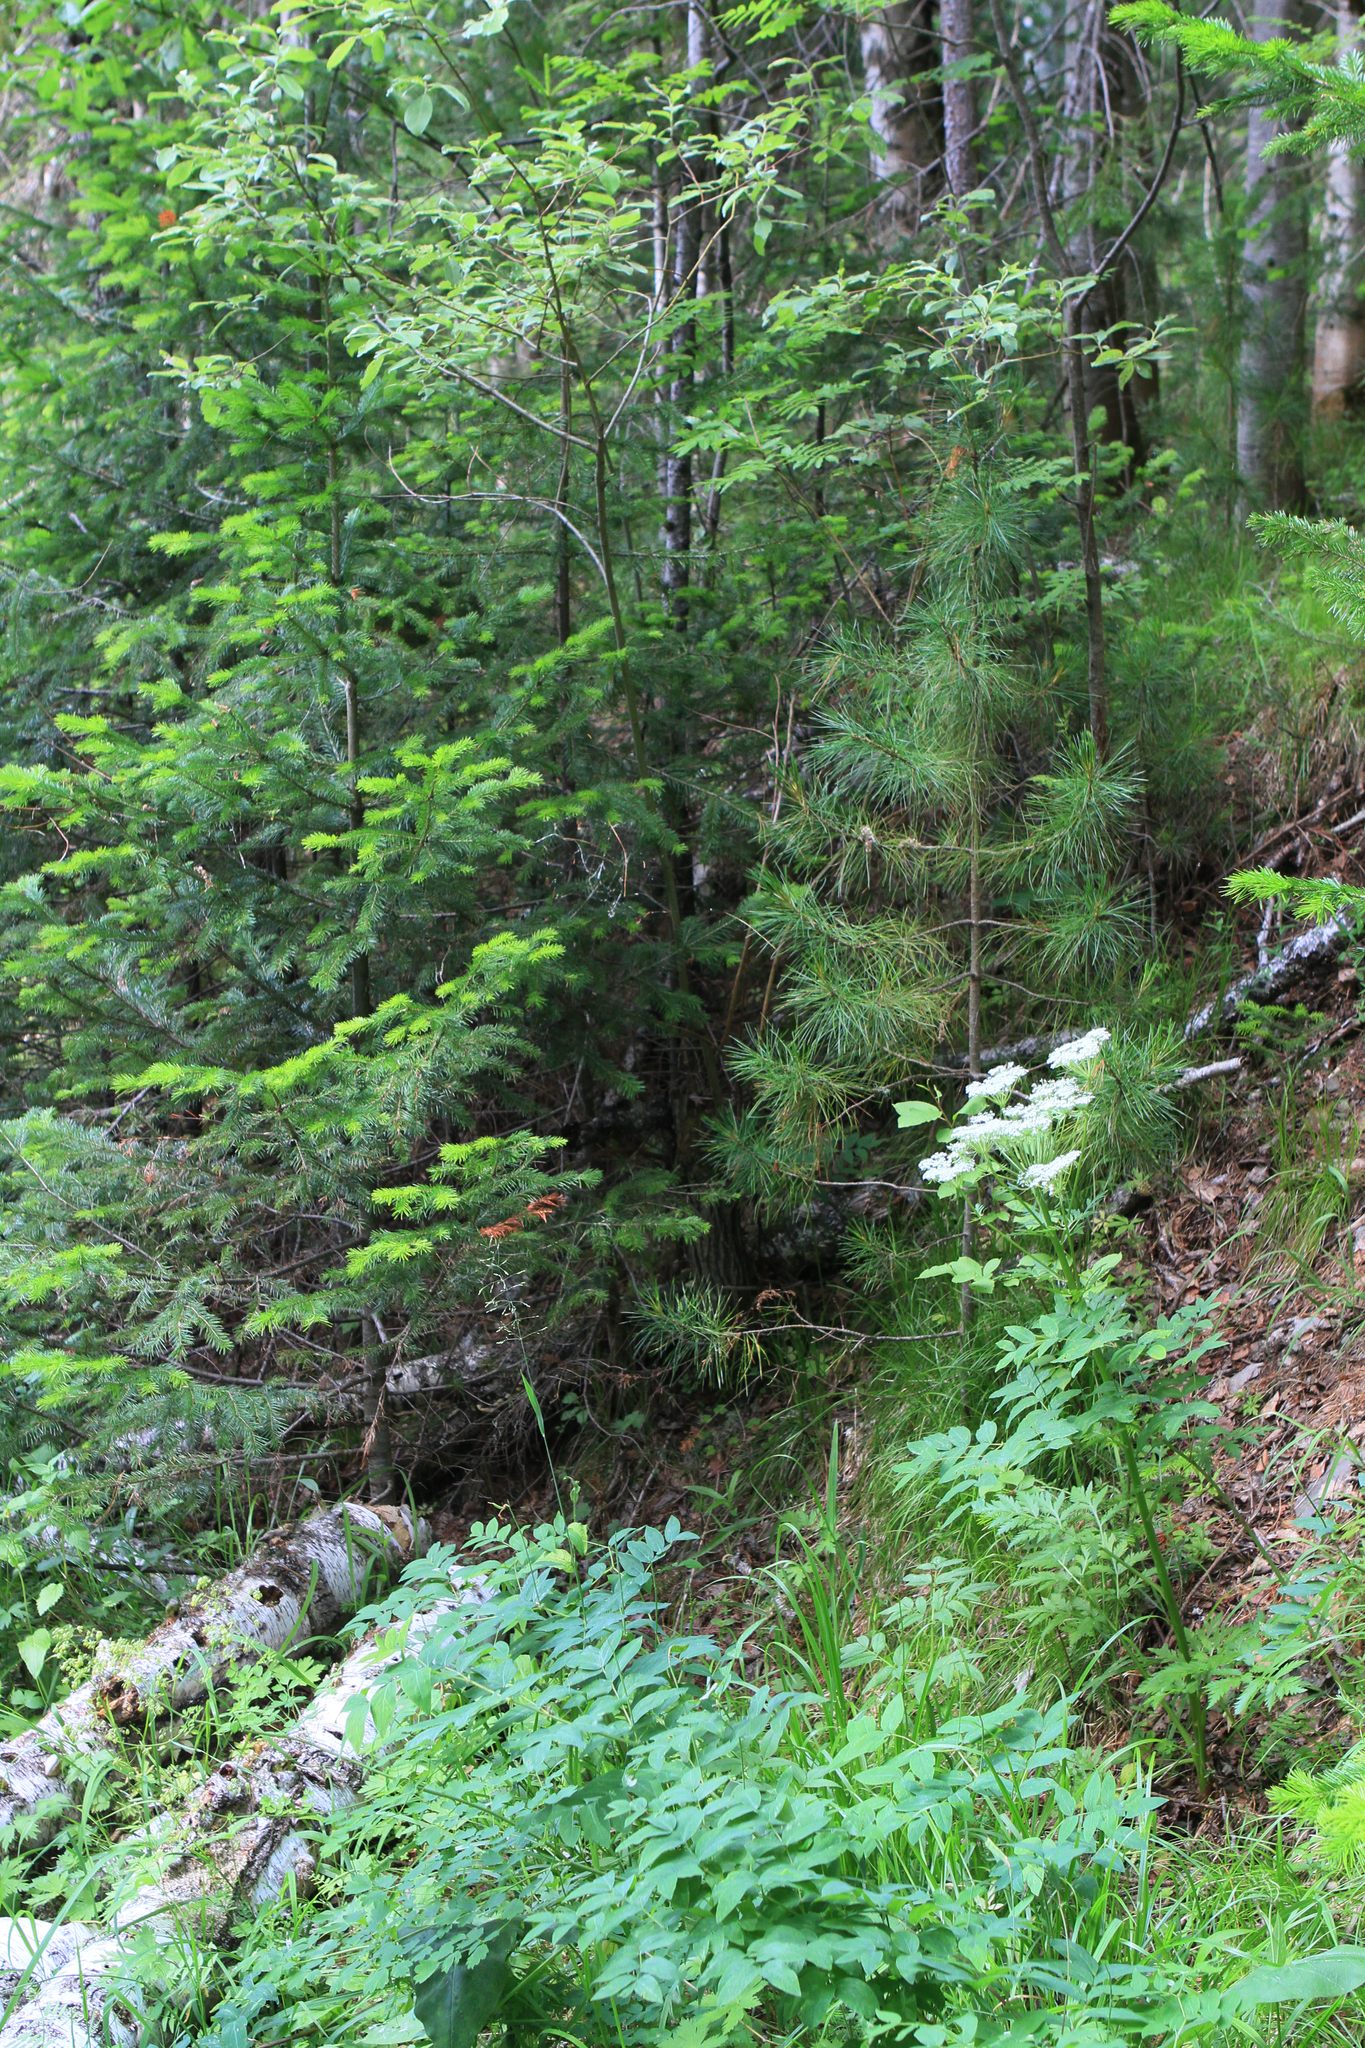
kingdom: Plantae
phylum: Tracheophyta
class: Pinopsida
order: Pinales
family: Pinaceae
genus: Abies
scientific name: Abies sibirica
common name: Siberian fir
